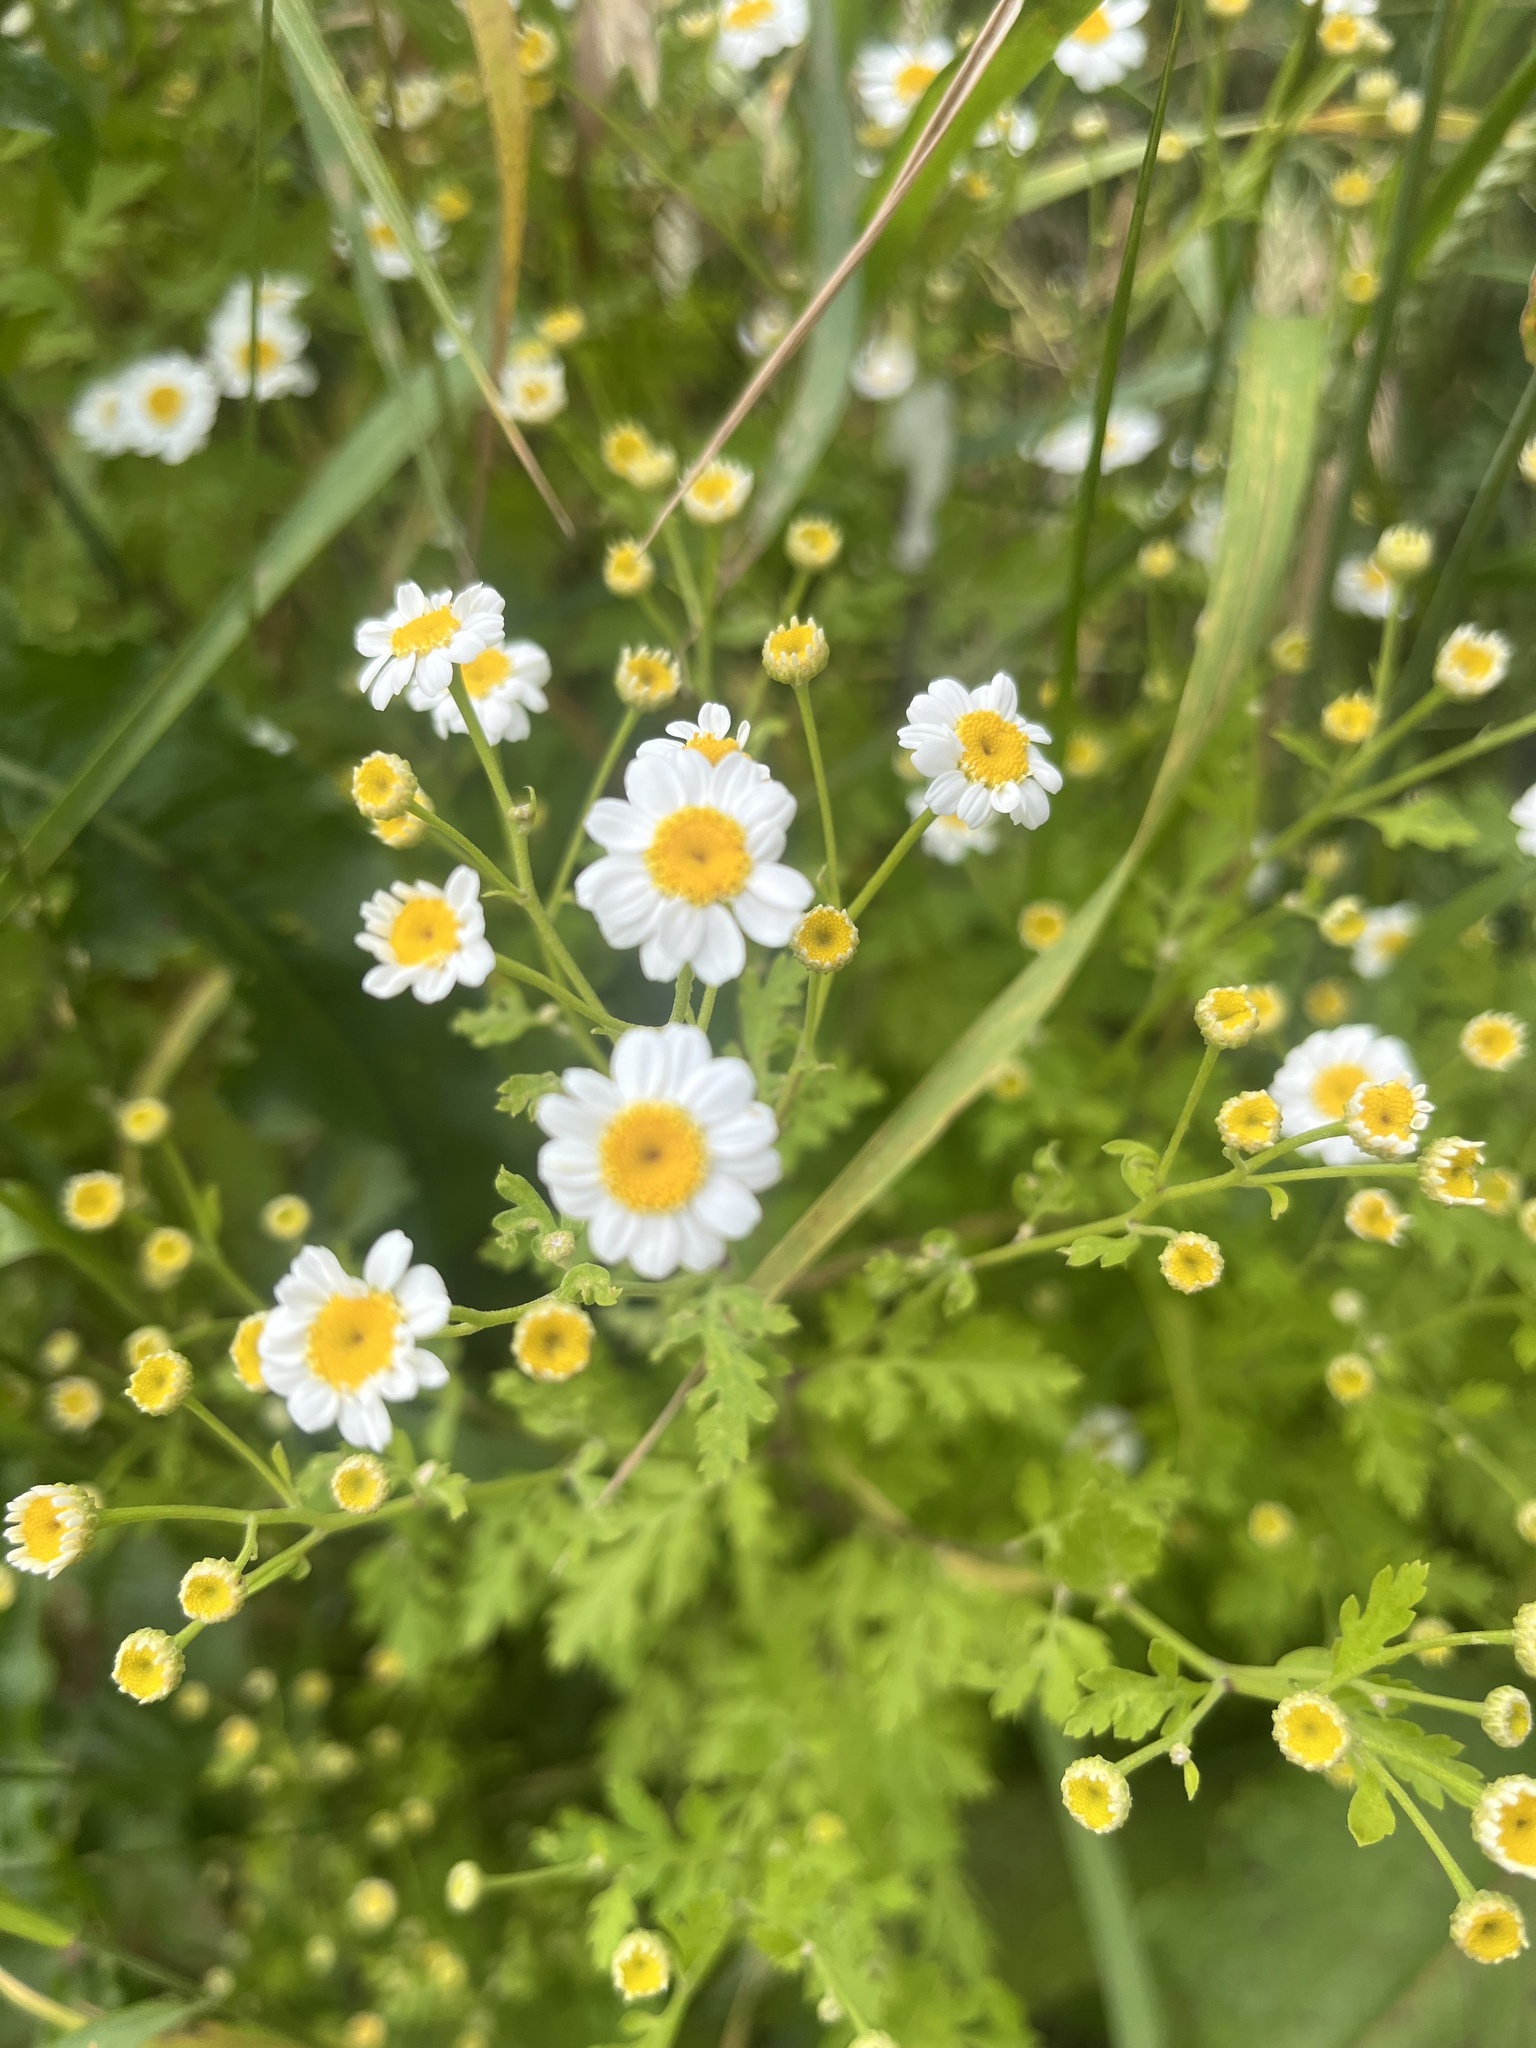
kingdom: Plantae
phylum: Tracheophyta
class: Magnoliopsida
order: Asterales
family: Asteraceae
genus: Tanacetum
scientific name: Tanacetum parthenium
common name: Feverfew
